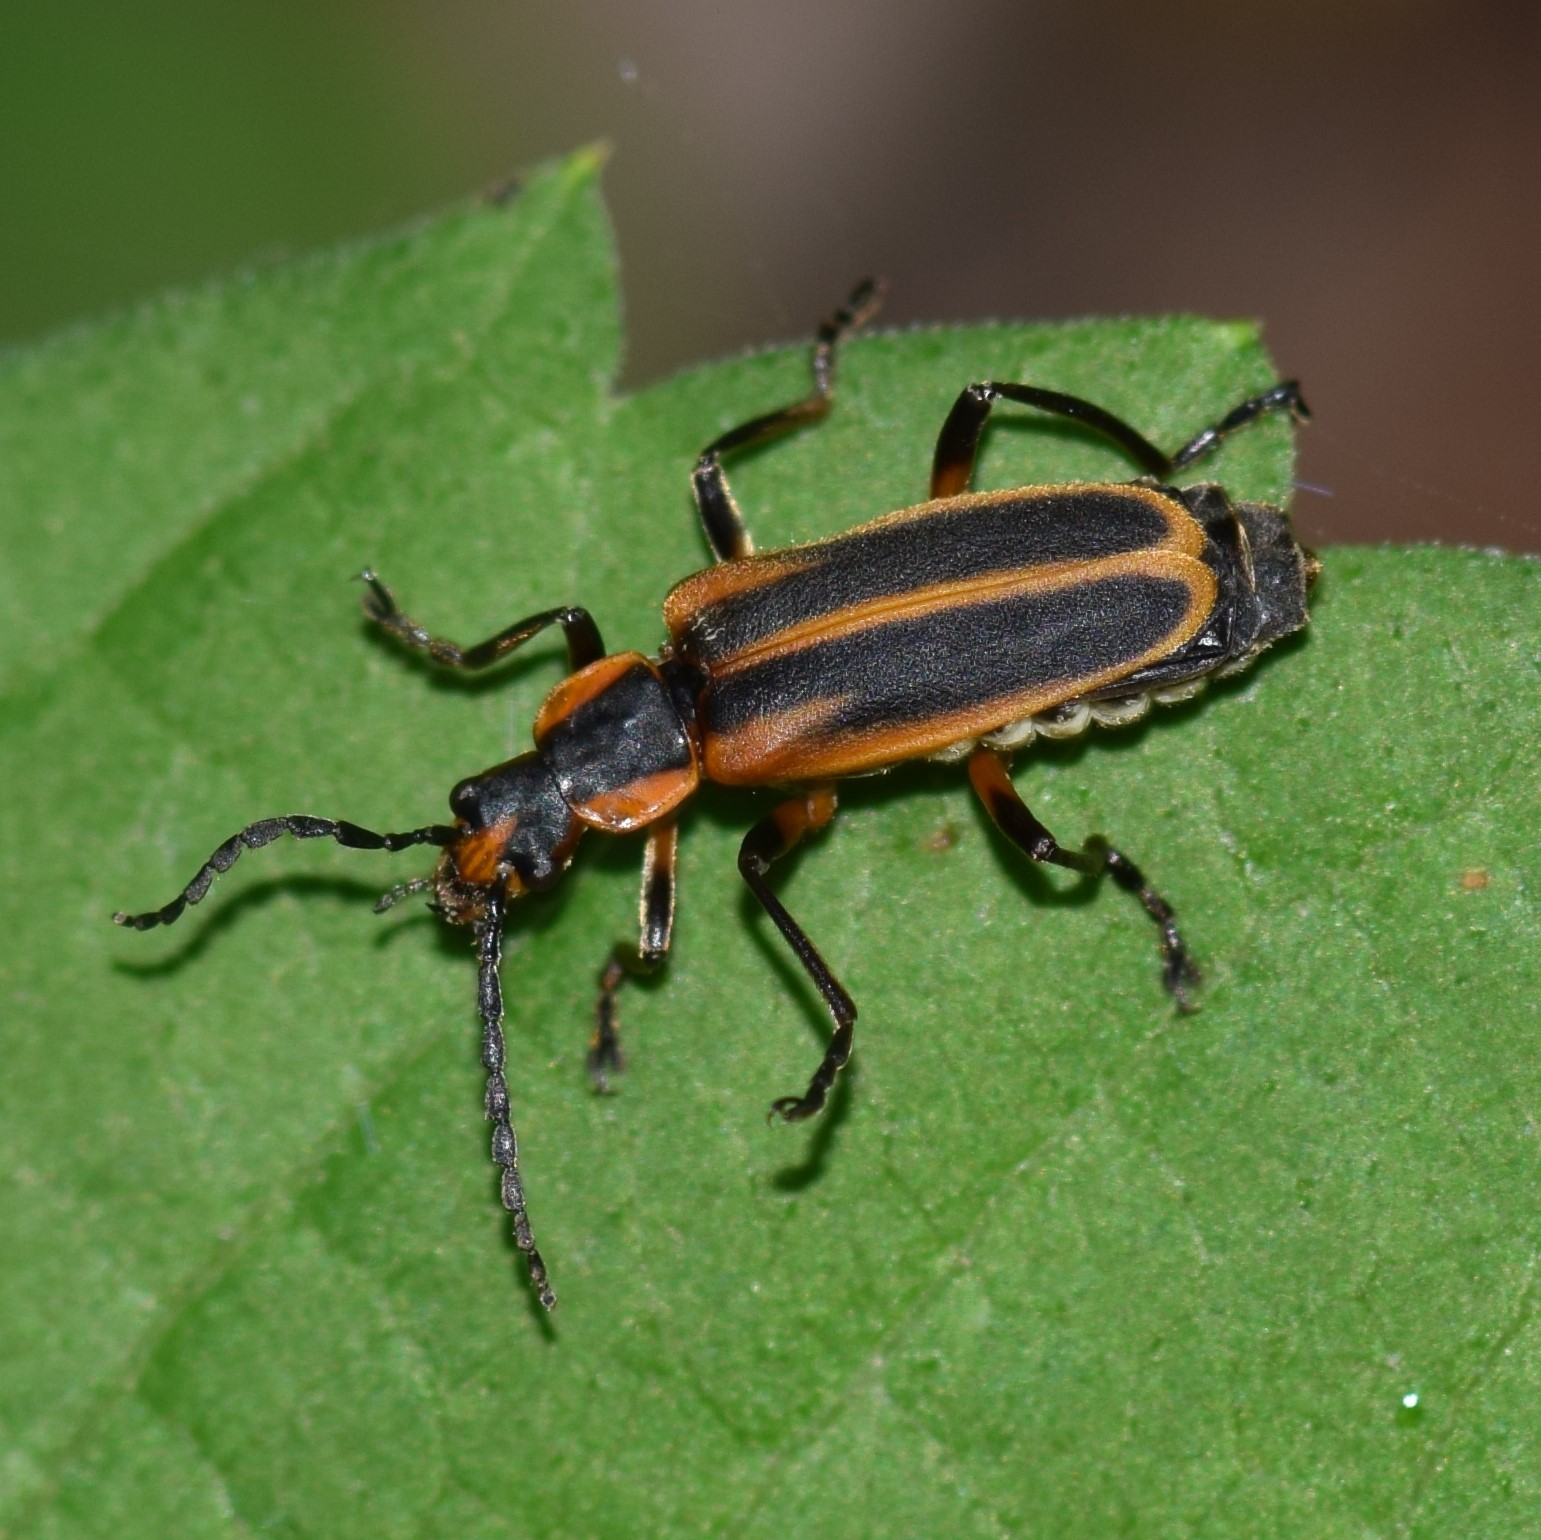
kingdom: Animalia
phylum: Arthropoda
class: Insecta
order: Coleoptera
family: Cantharidae
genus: Chauliognathus
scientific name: Chauliognathus marginatus
